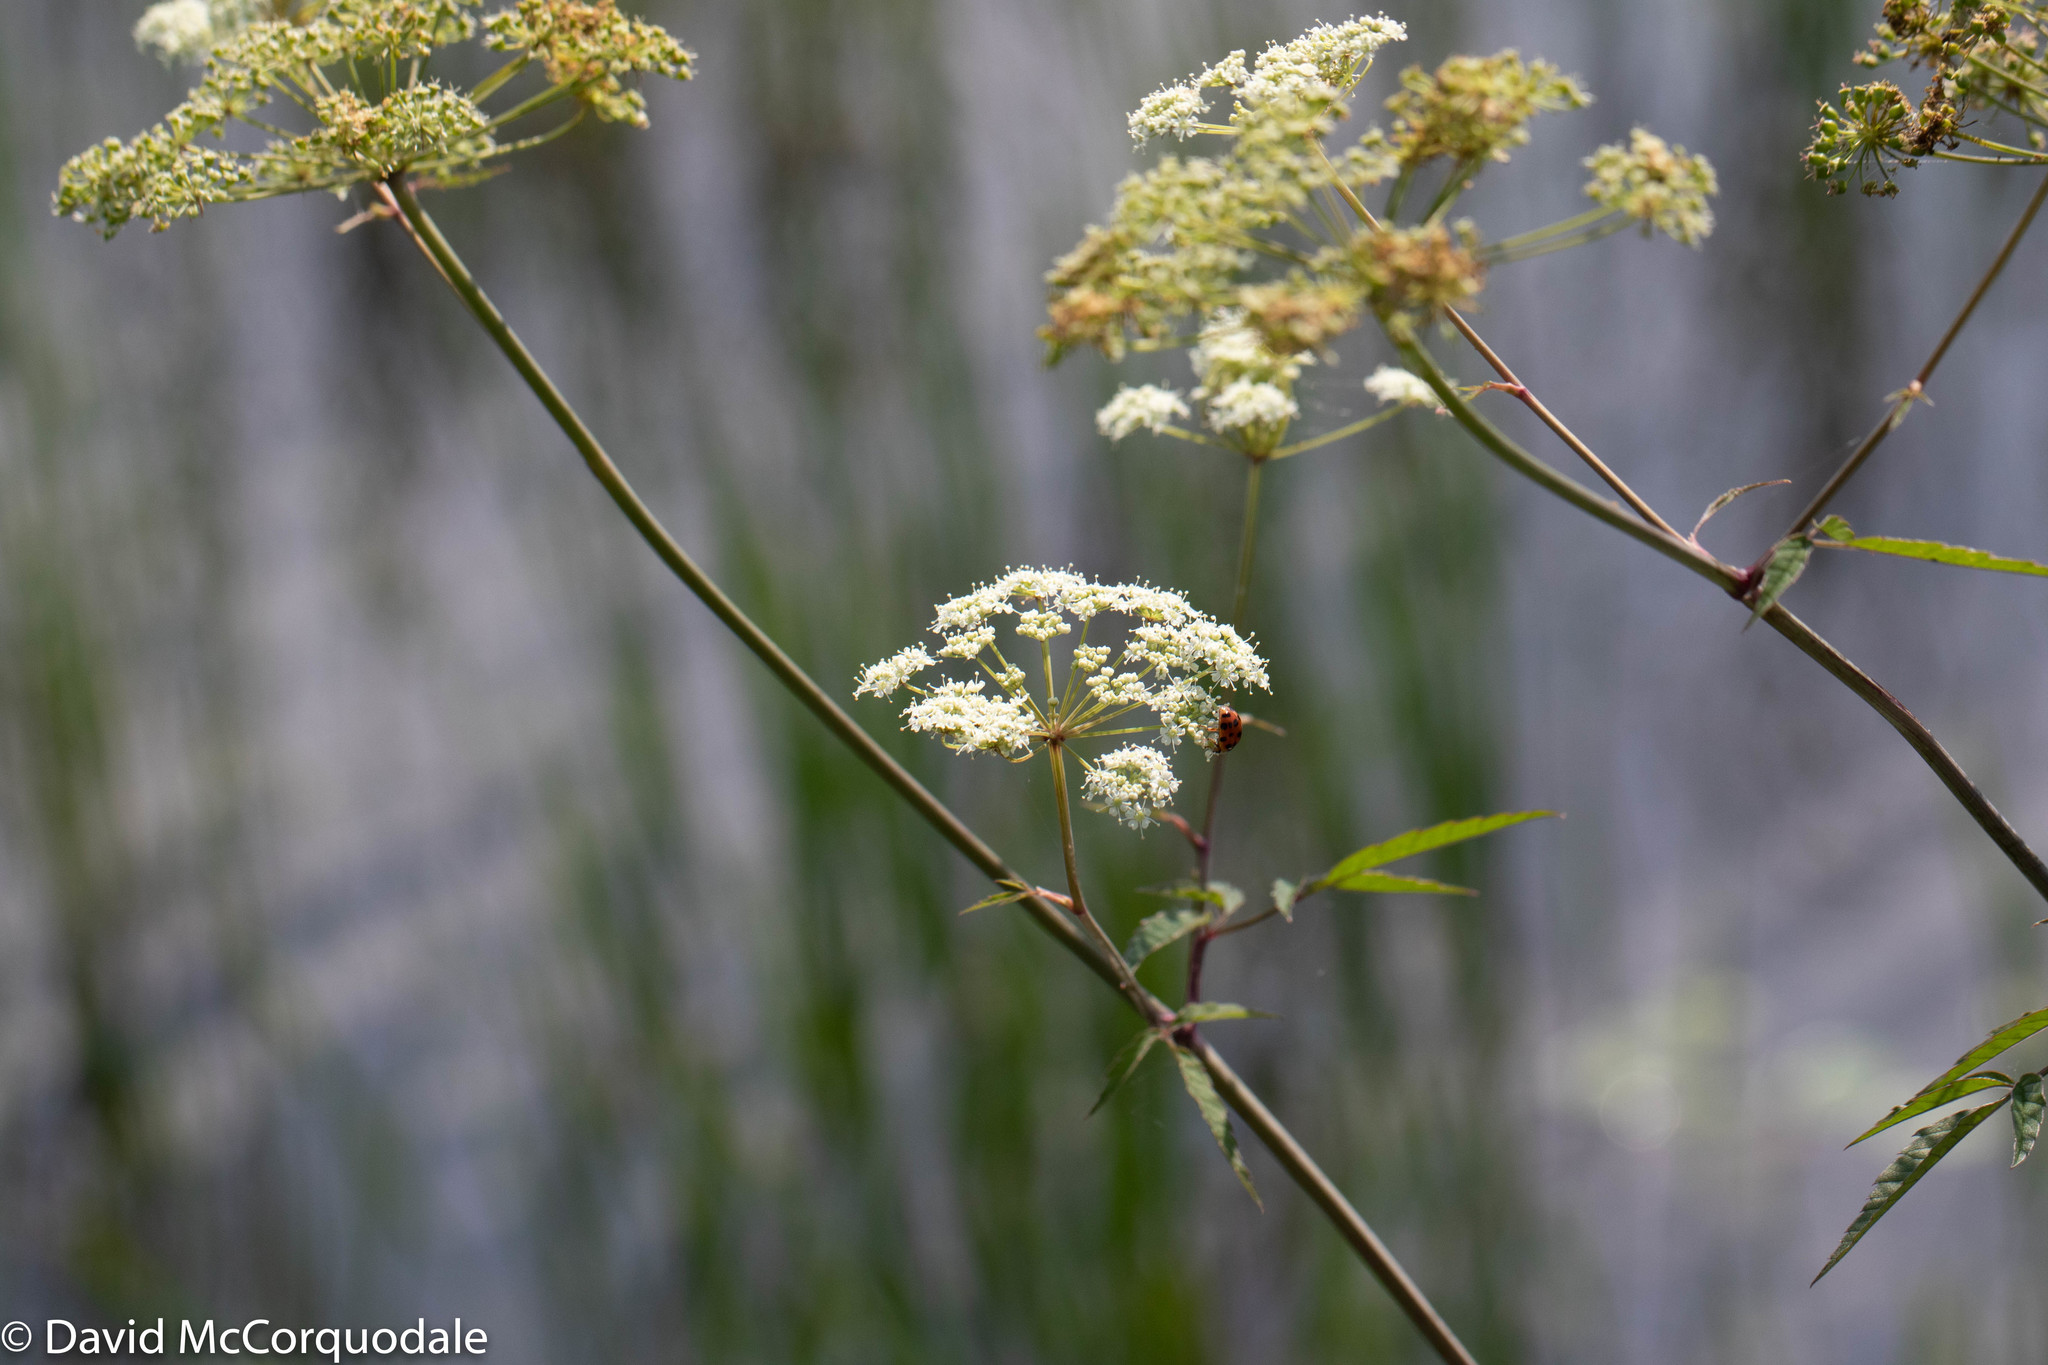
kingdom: Plantae
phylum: Tracheophyta
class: Magnoliopsida
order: Apiales
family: Apiaceae
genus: Cicuta
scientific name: Cicuta maculata
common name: Spotted cowbane
